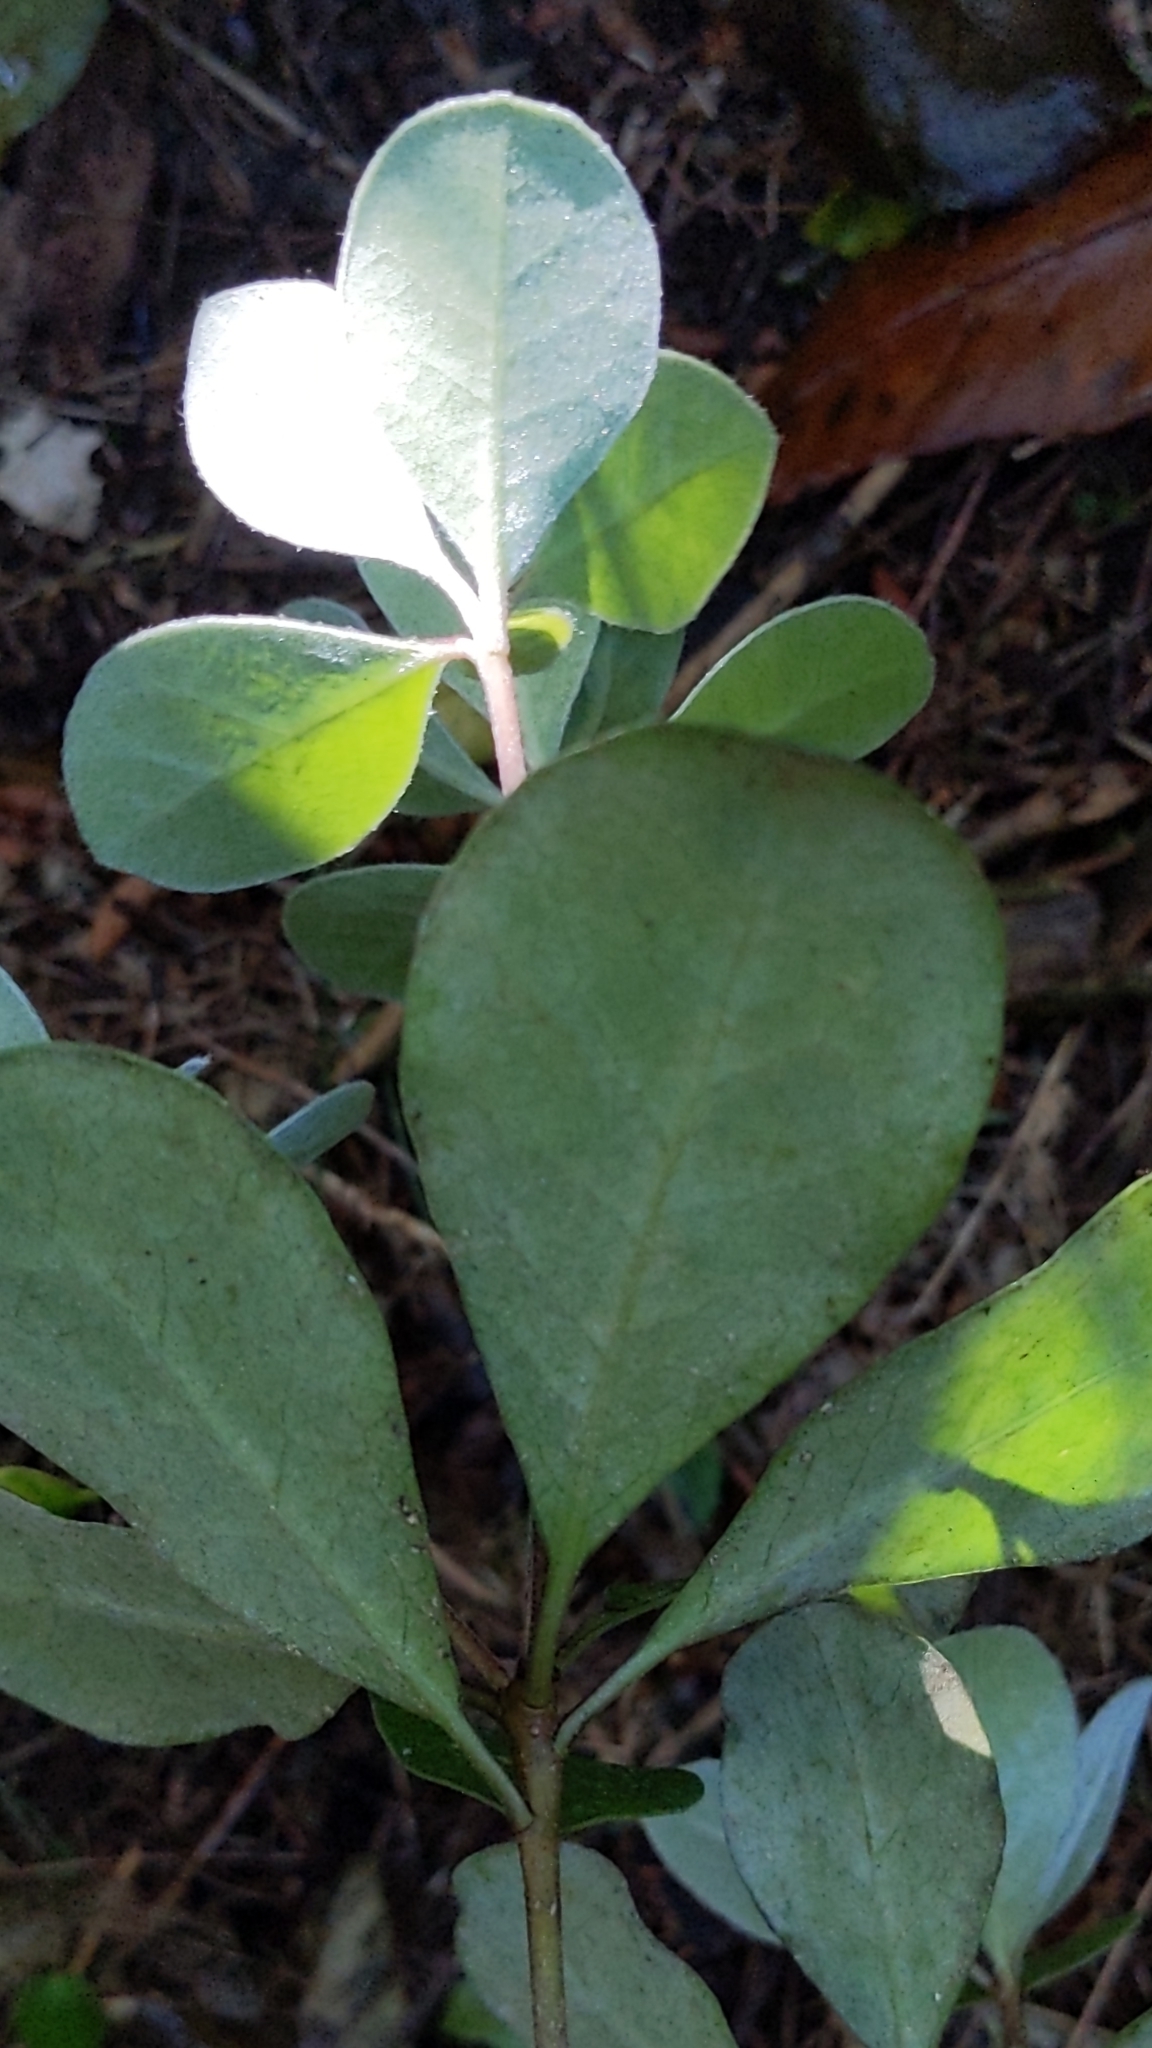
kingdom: Plantae
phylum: Tracheophyta
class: Magnoliopsida
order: Apiales
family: Pittosporaceae
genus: Pittosporum
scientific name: Pittosporum crassifolium
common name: Karo
